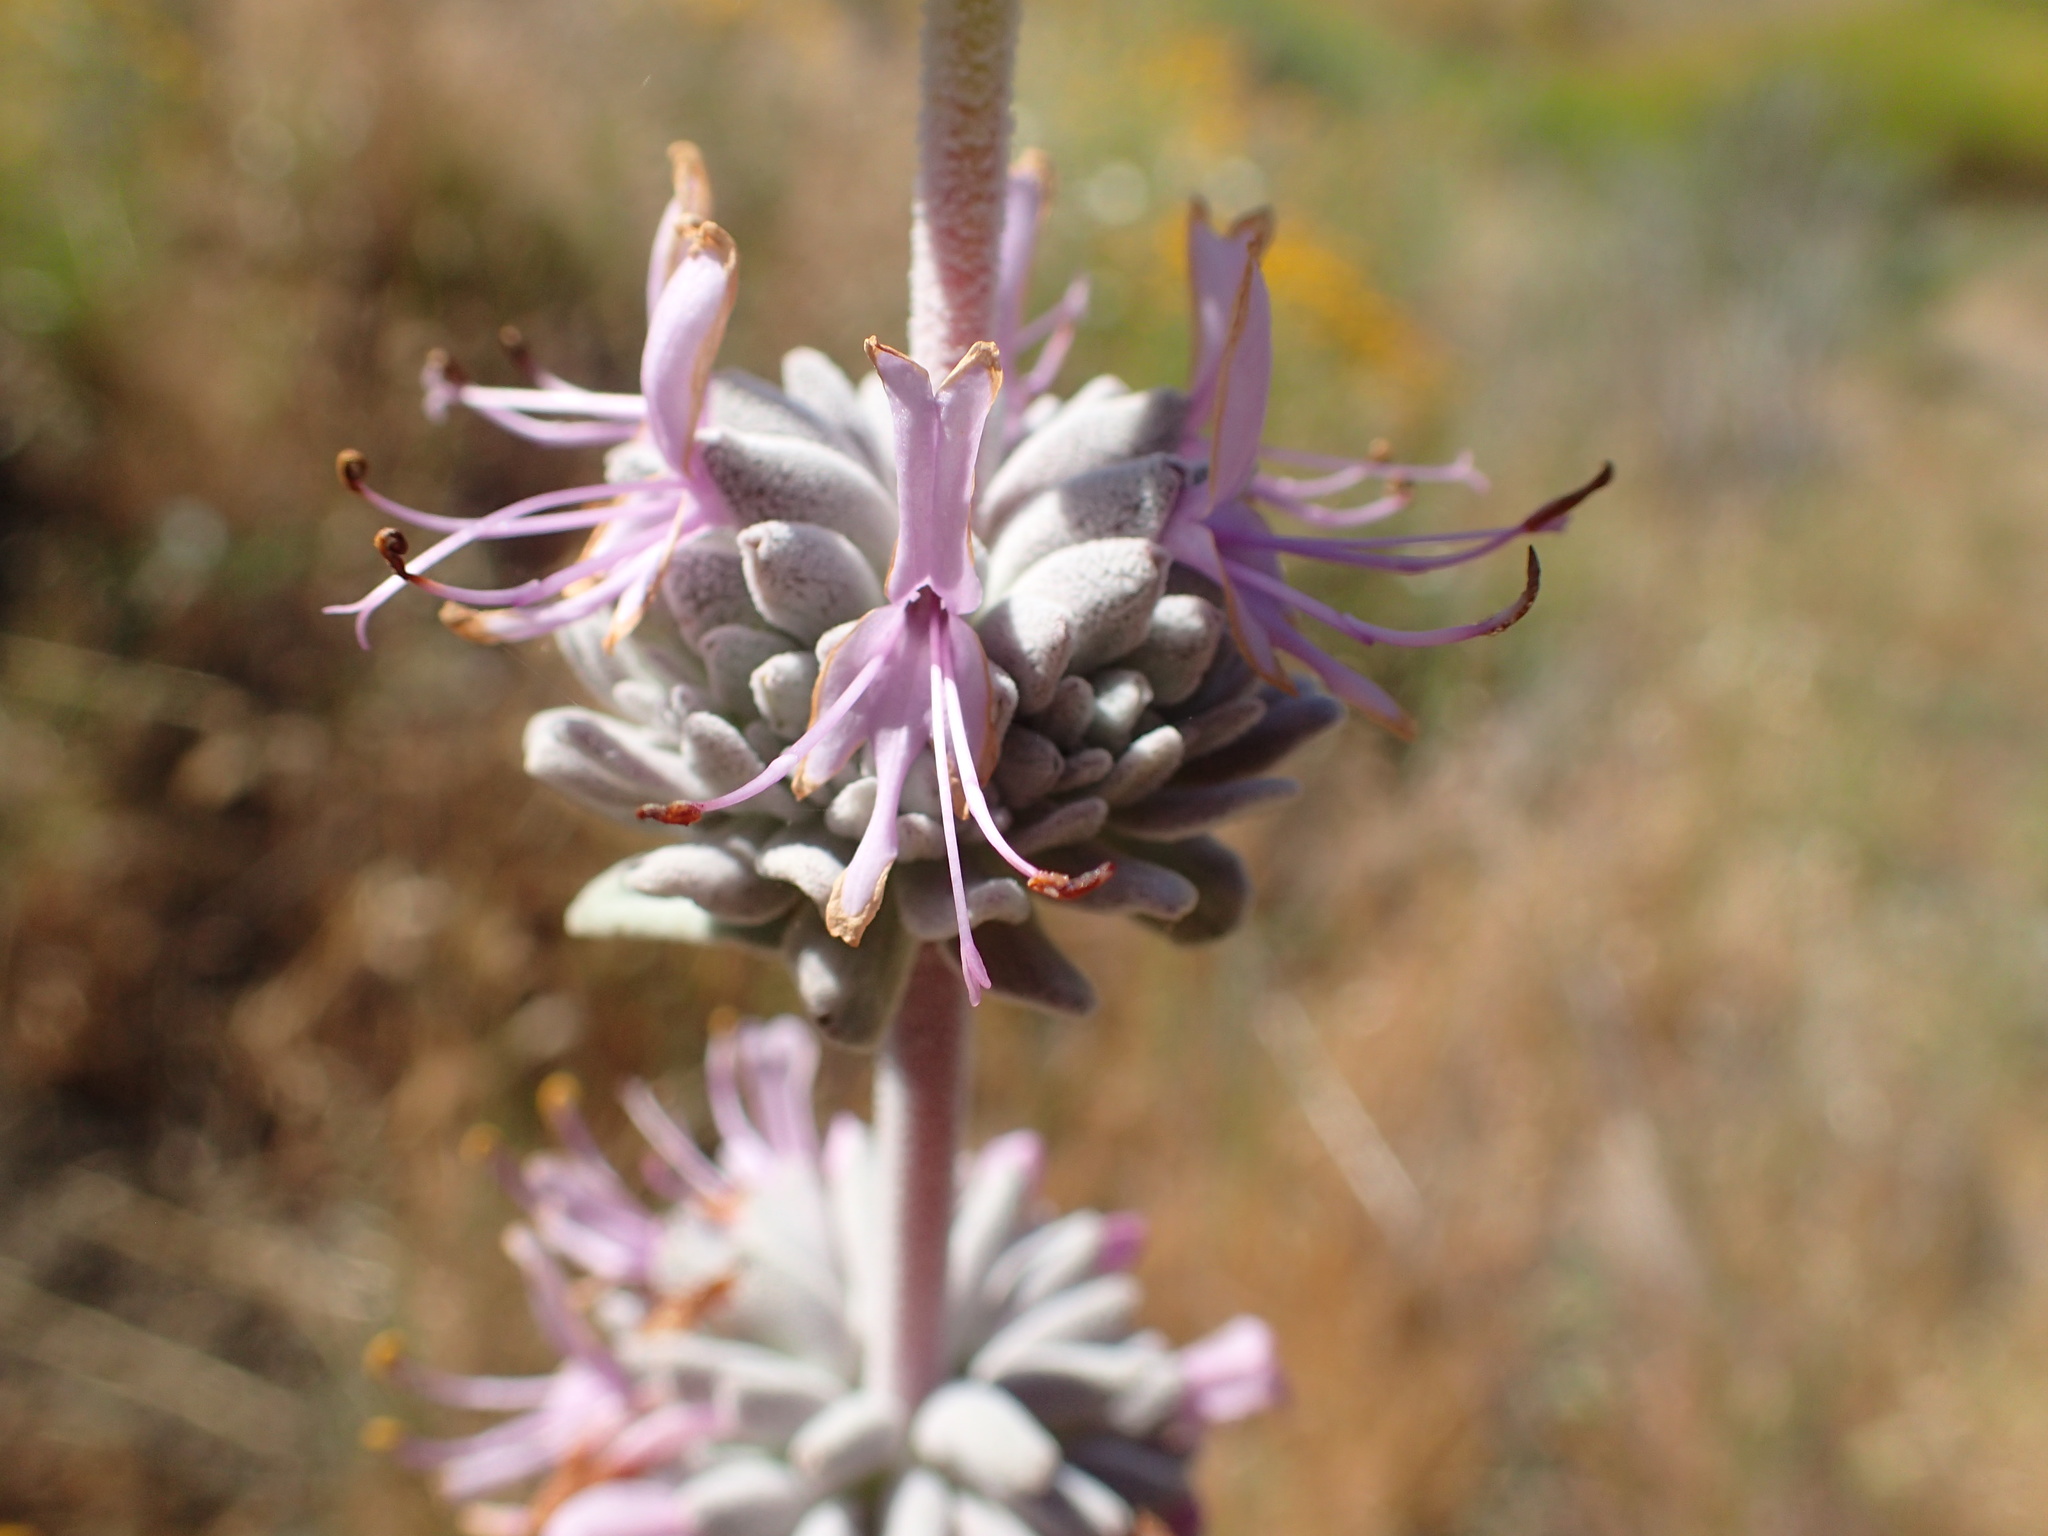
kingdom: Plantae
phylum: Tracheophyta
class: Magnoliopsida
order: Lamiales
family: Lamiaceae
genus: Salvia
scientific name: Salvia leucophylla
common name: Purple sage
